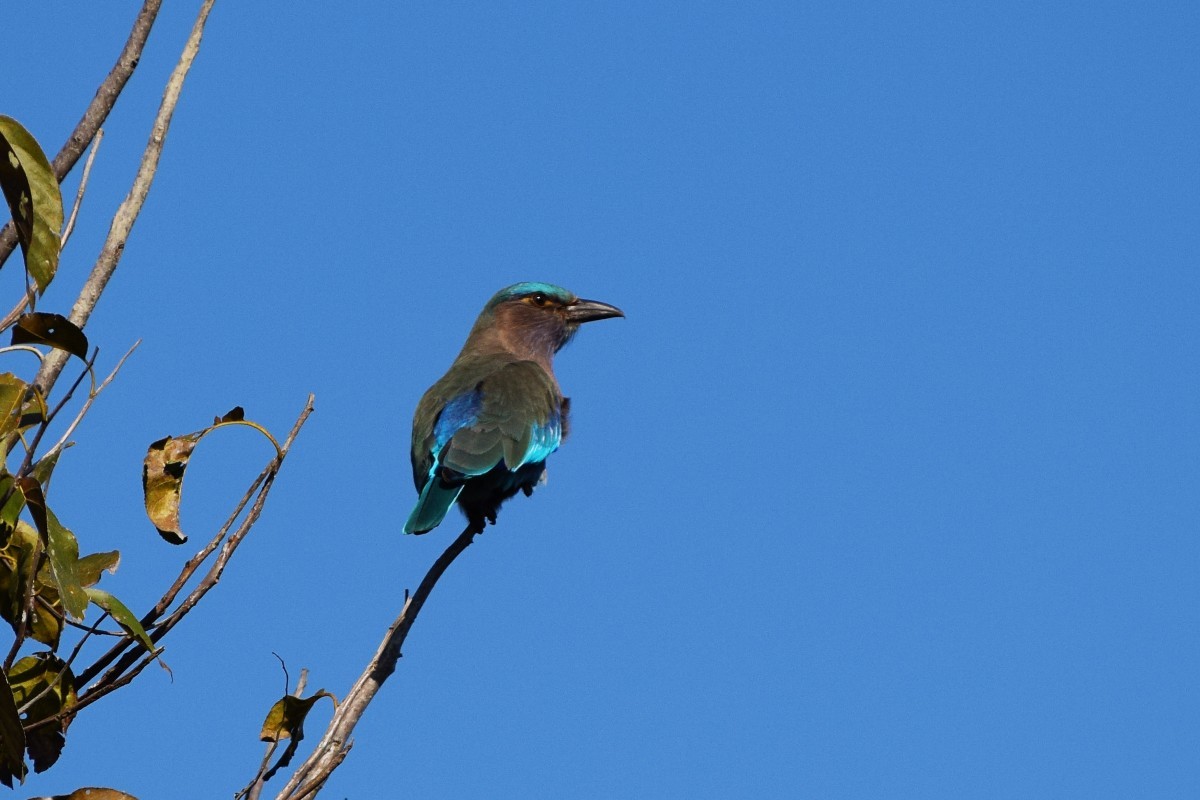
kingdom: Animalia
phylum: Chordata
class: Aves
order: Coraciiformes
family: Coraciidae
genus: Coracias
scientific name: Coracias affinis
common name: Indochinese roller
